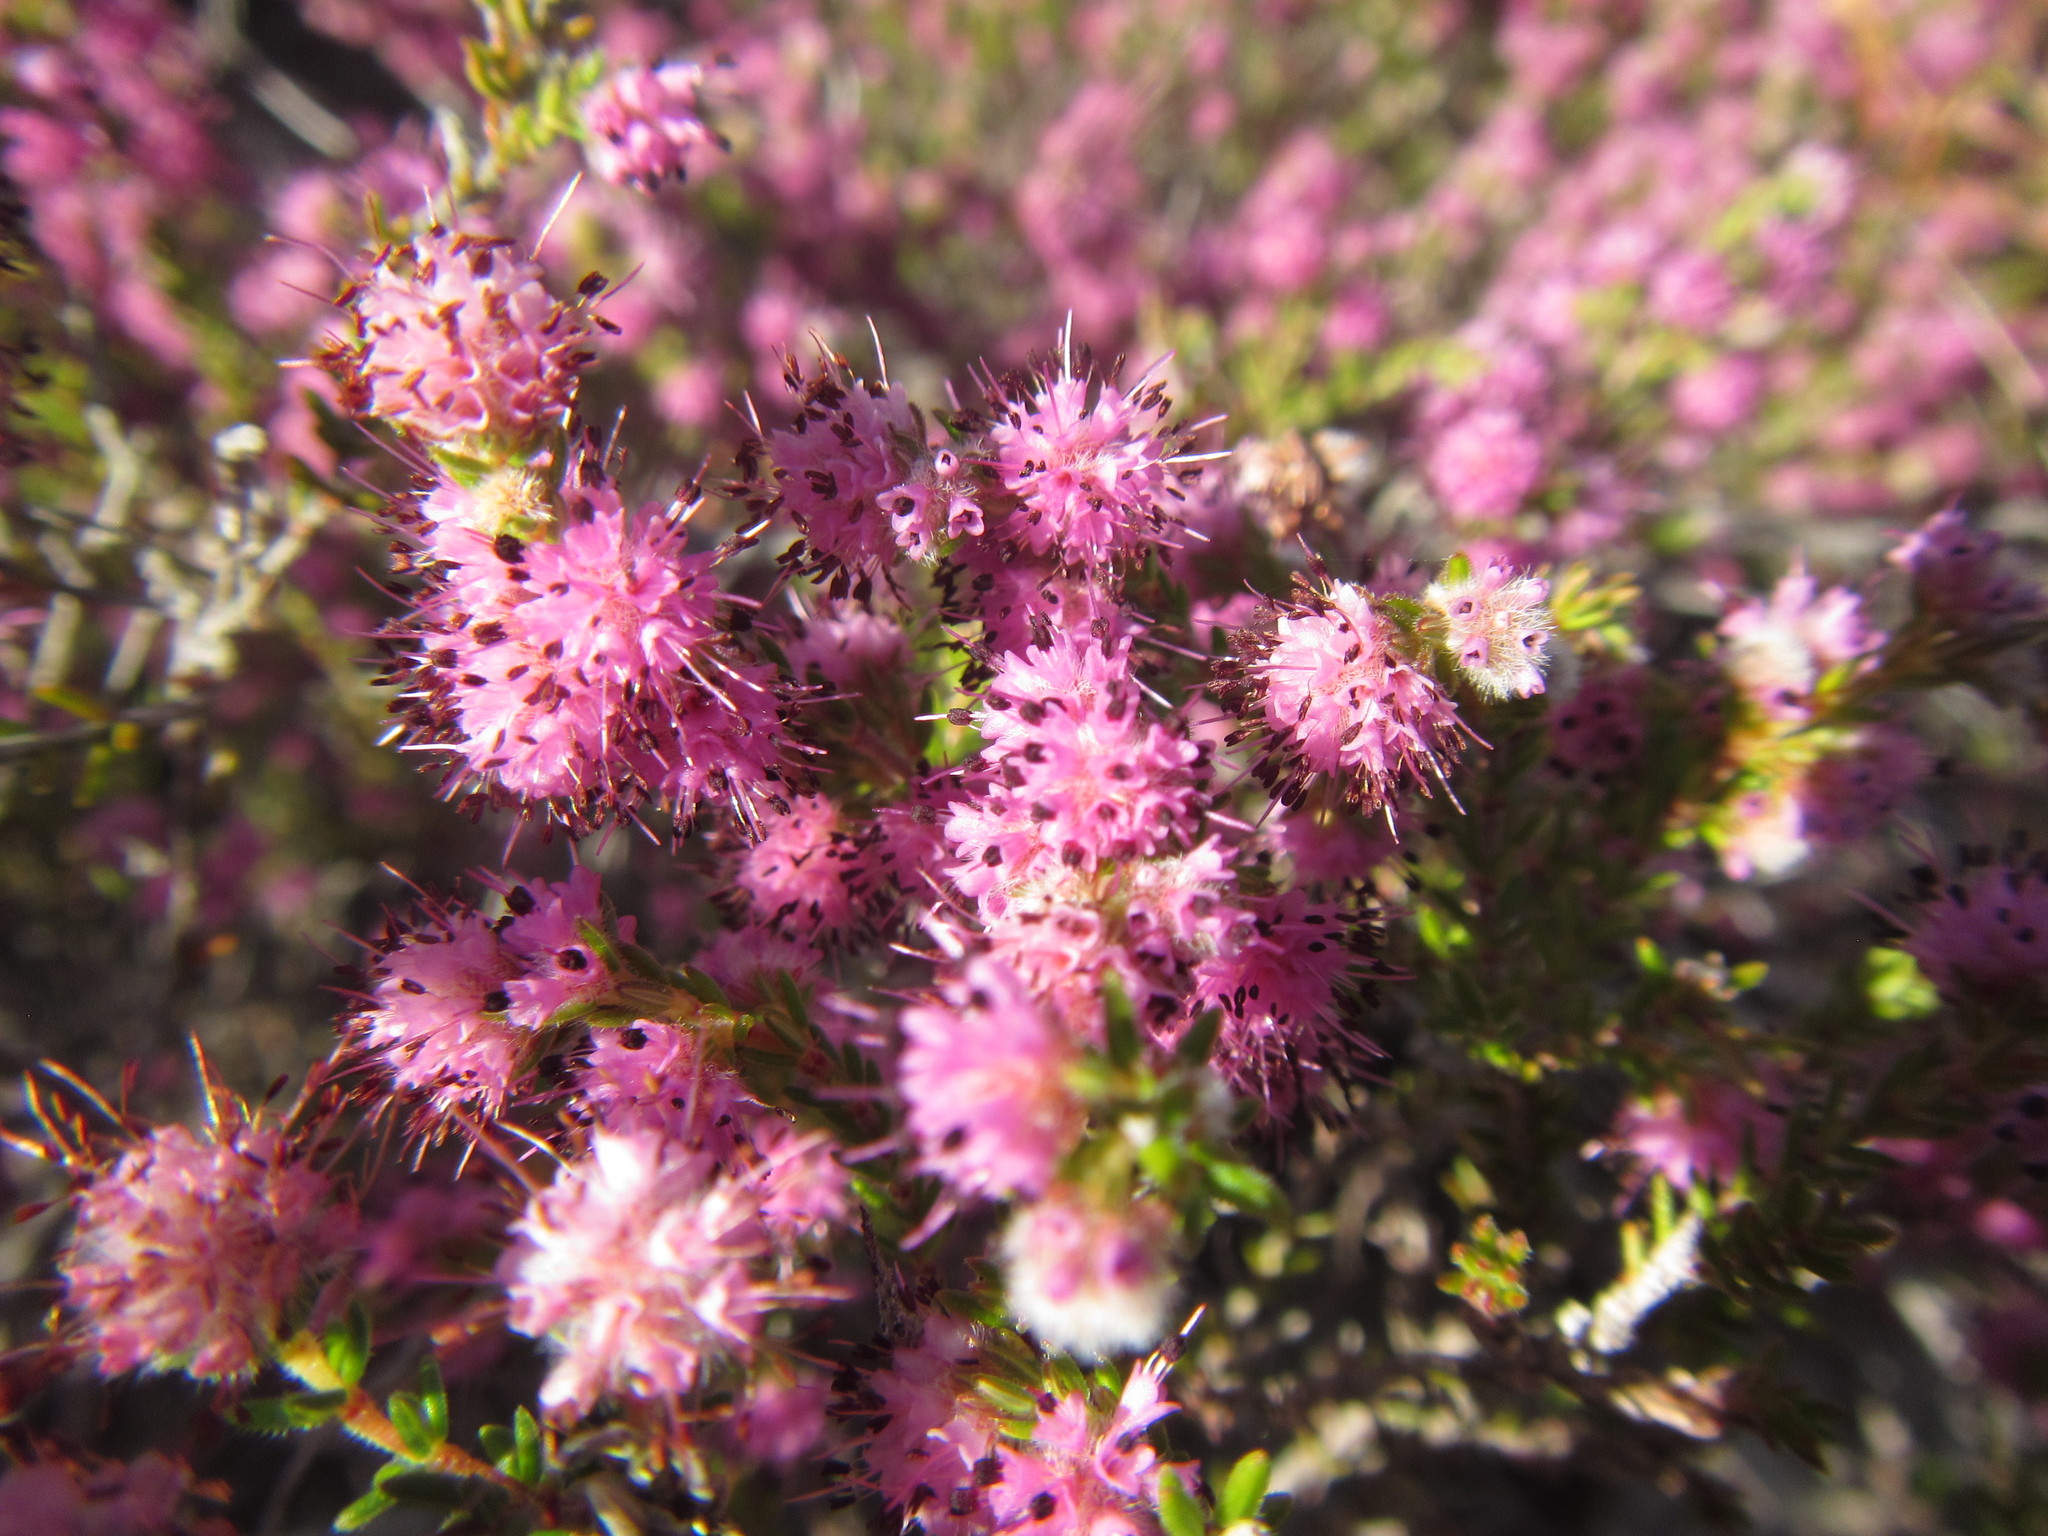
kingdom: Plantae
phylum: Tracheophyta
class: Magnoliopsida
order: Ericales
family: Ericaceae
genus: Erica
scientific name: Erica pilosiflora
